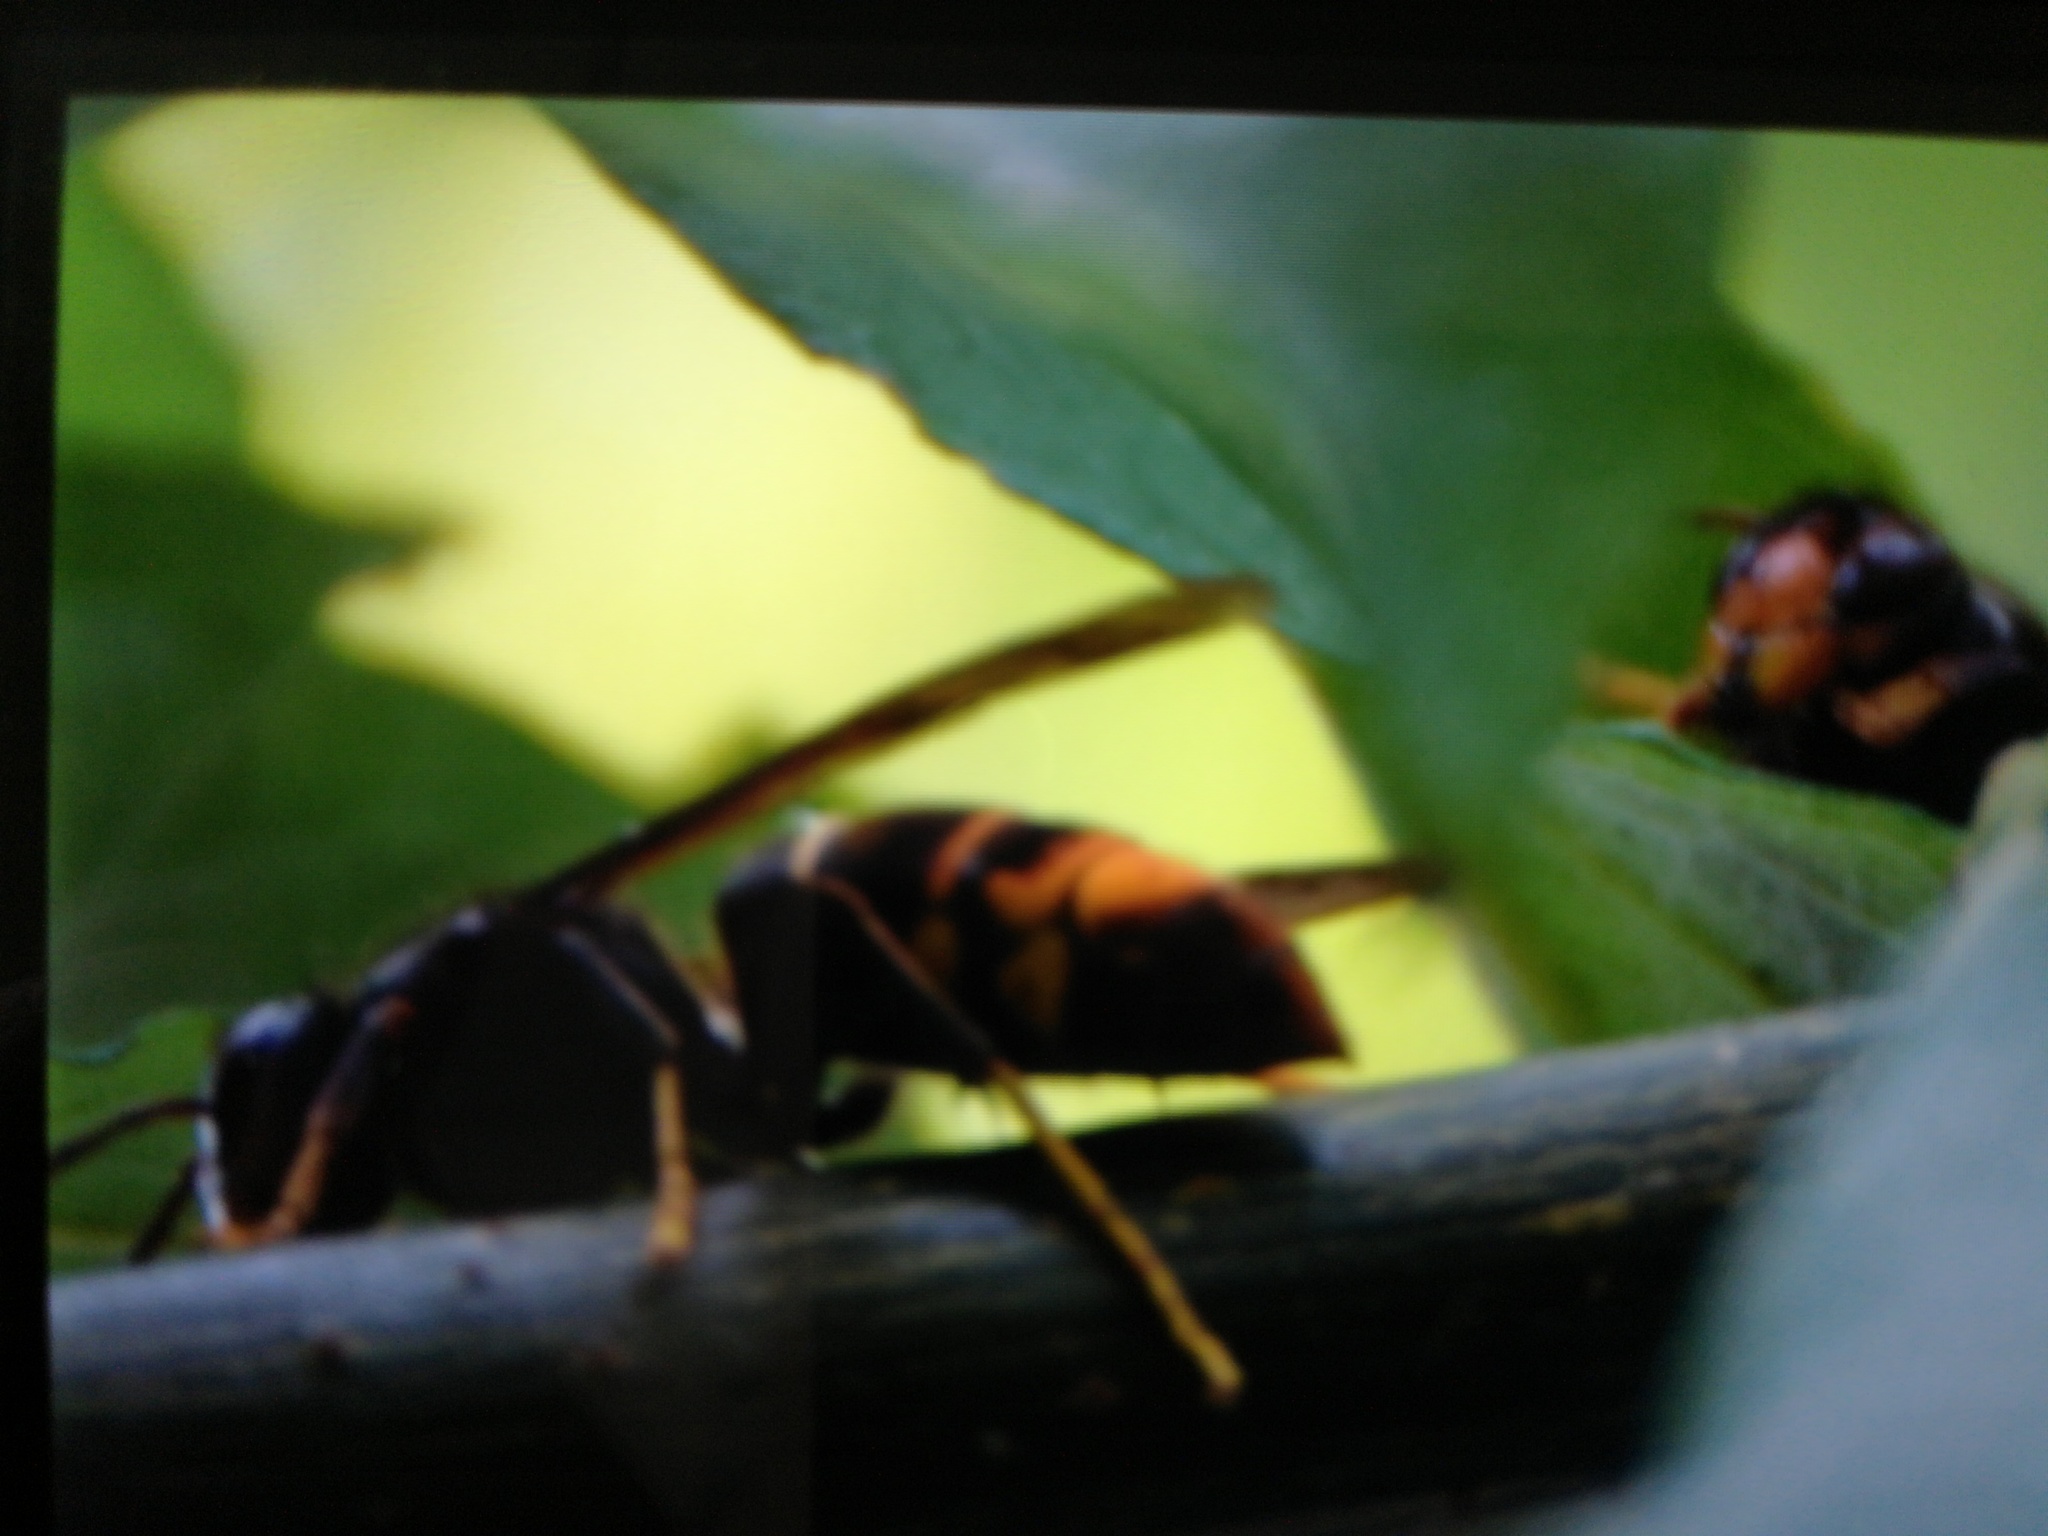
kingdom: Animalia
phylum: Arthropoda
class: Insecta
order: Hymenoptera
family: Vespidae
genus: Vespa
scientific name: Vespa velutina
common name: Asian hornet
